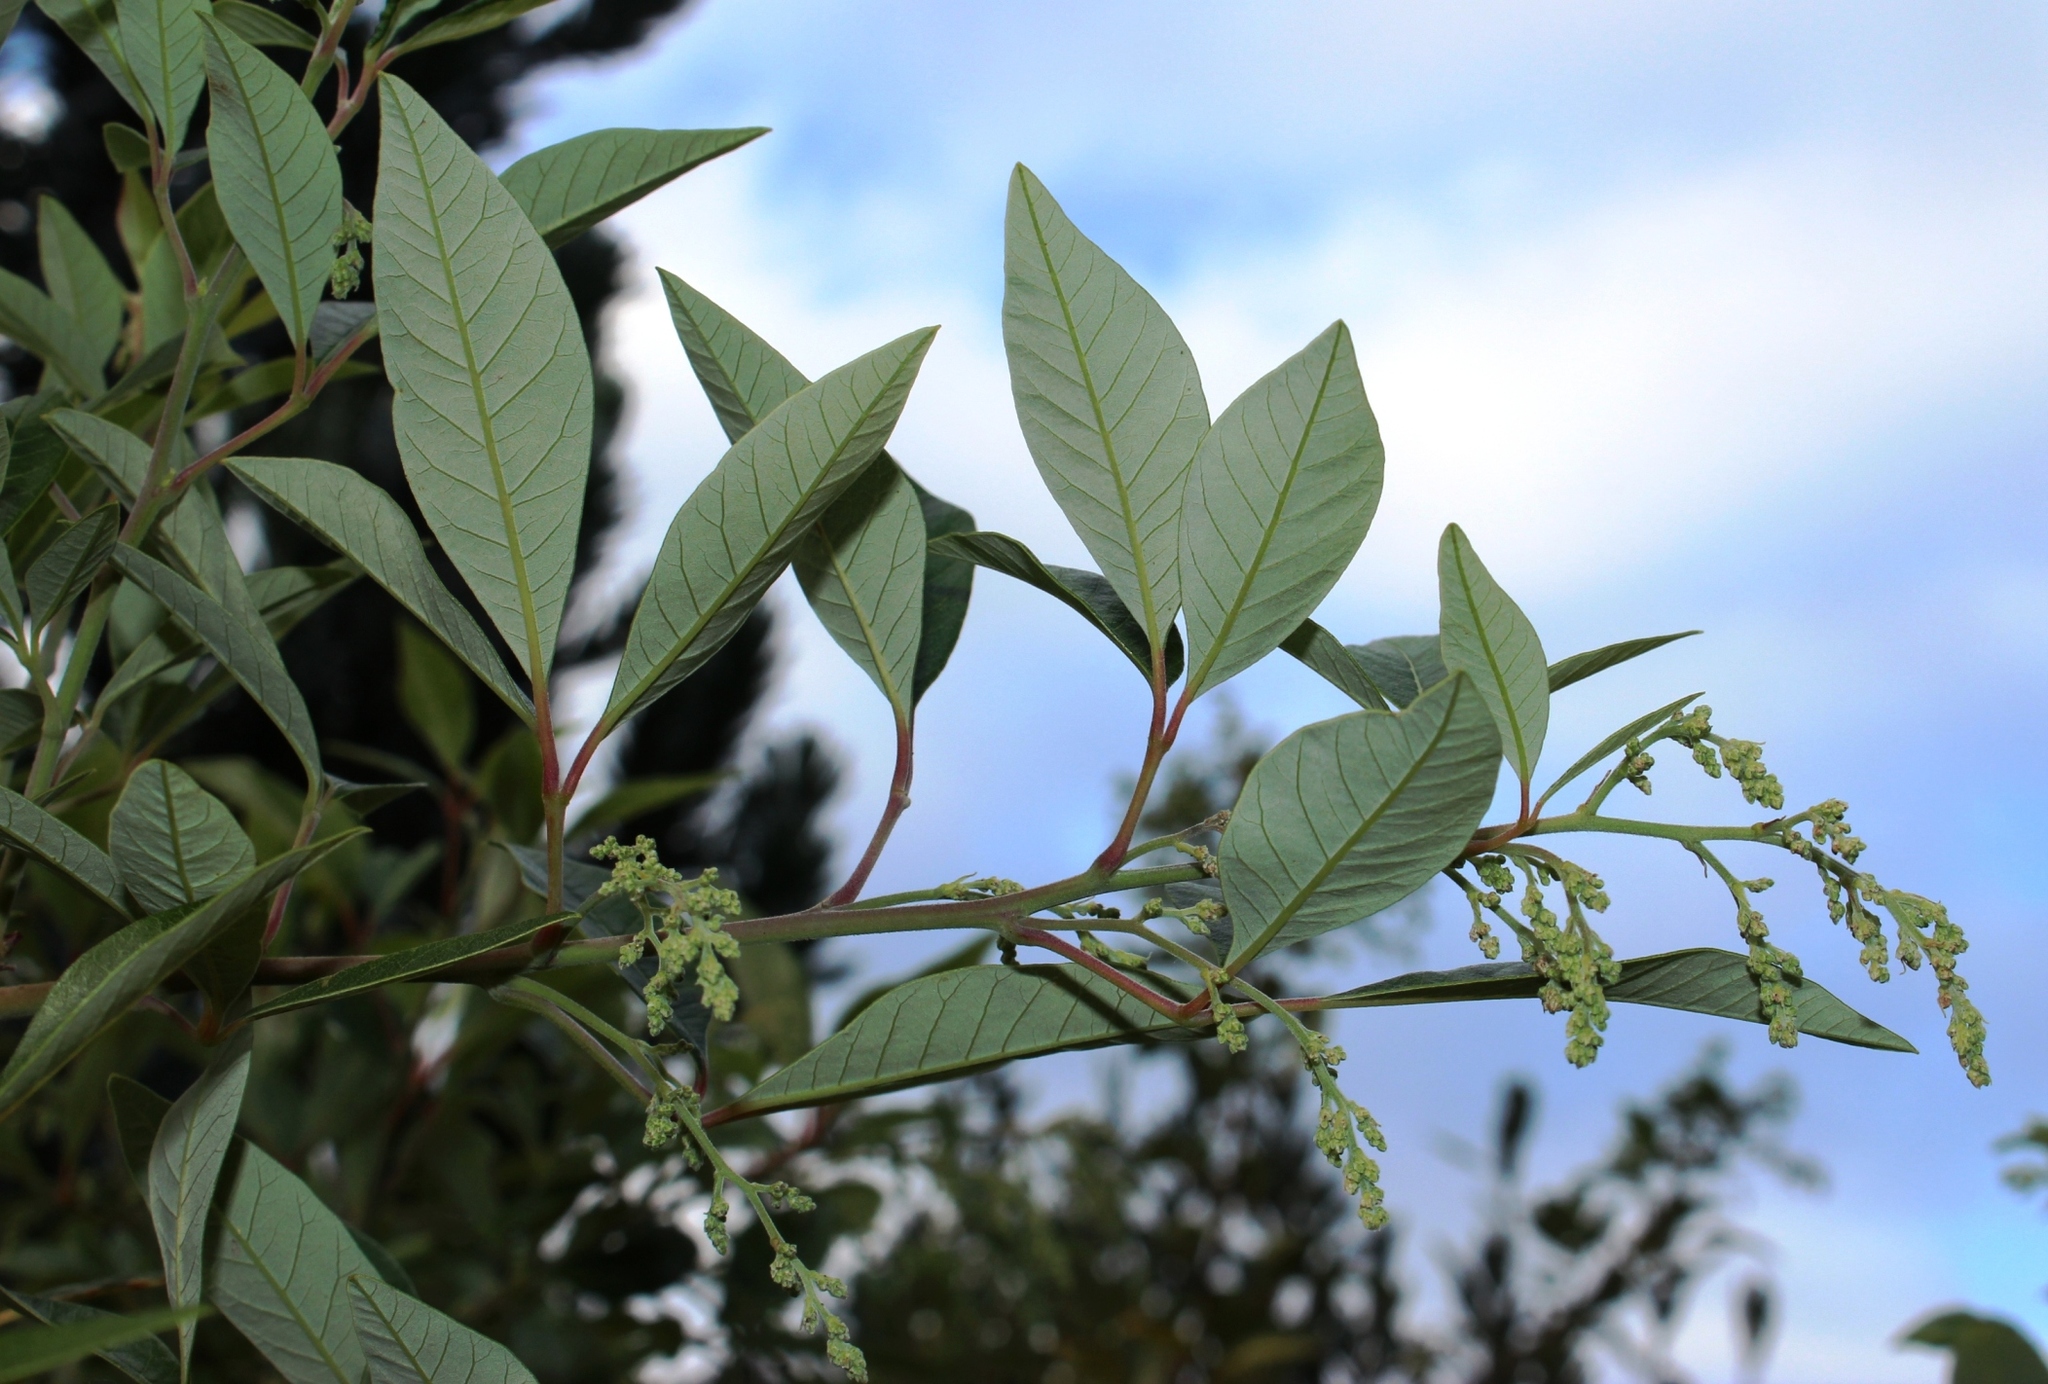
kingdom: Plantae
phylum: Tracheophyta
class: Magnoliopsida
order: Sapindales
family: Anacardiaceae
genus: Searsia
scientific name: Searsia tomentosa
